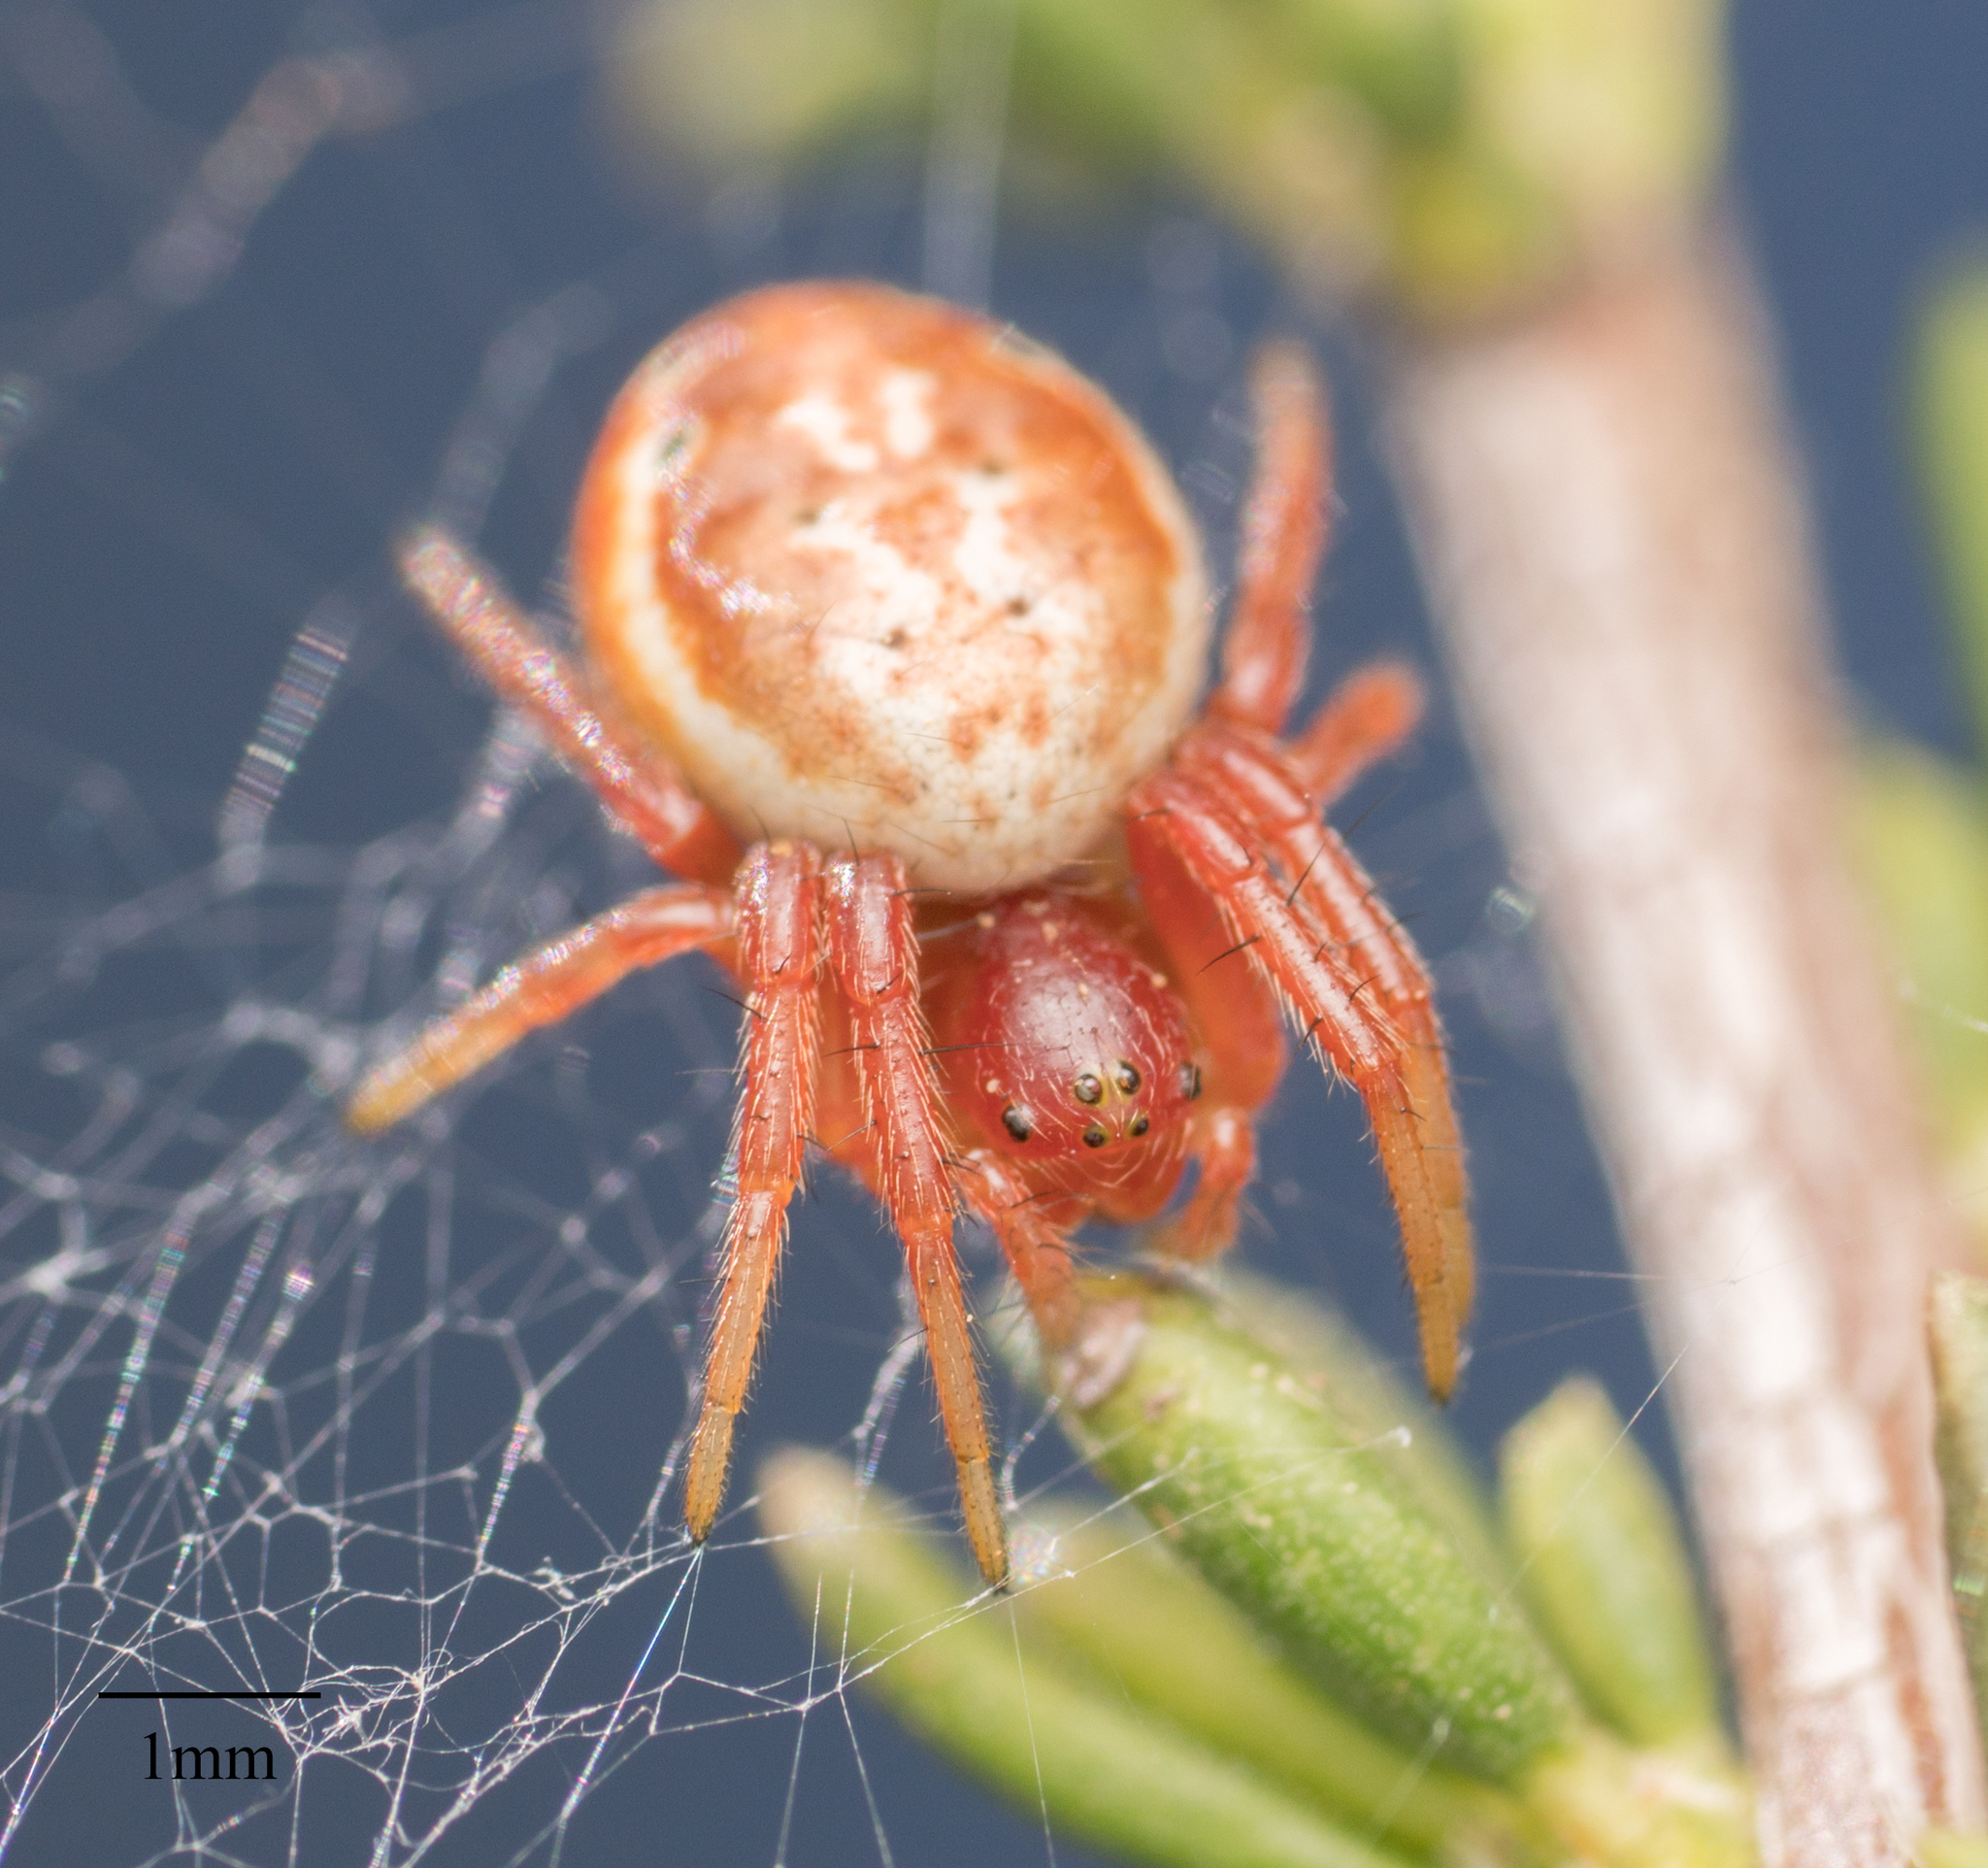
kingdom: Animalia
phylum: Arthropoda
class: Arachnida
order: Araneae
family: Araneidae
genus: Araniella
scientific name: Araniella displicata
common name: Sixspotted orb weaver
